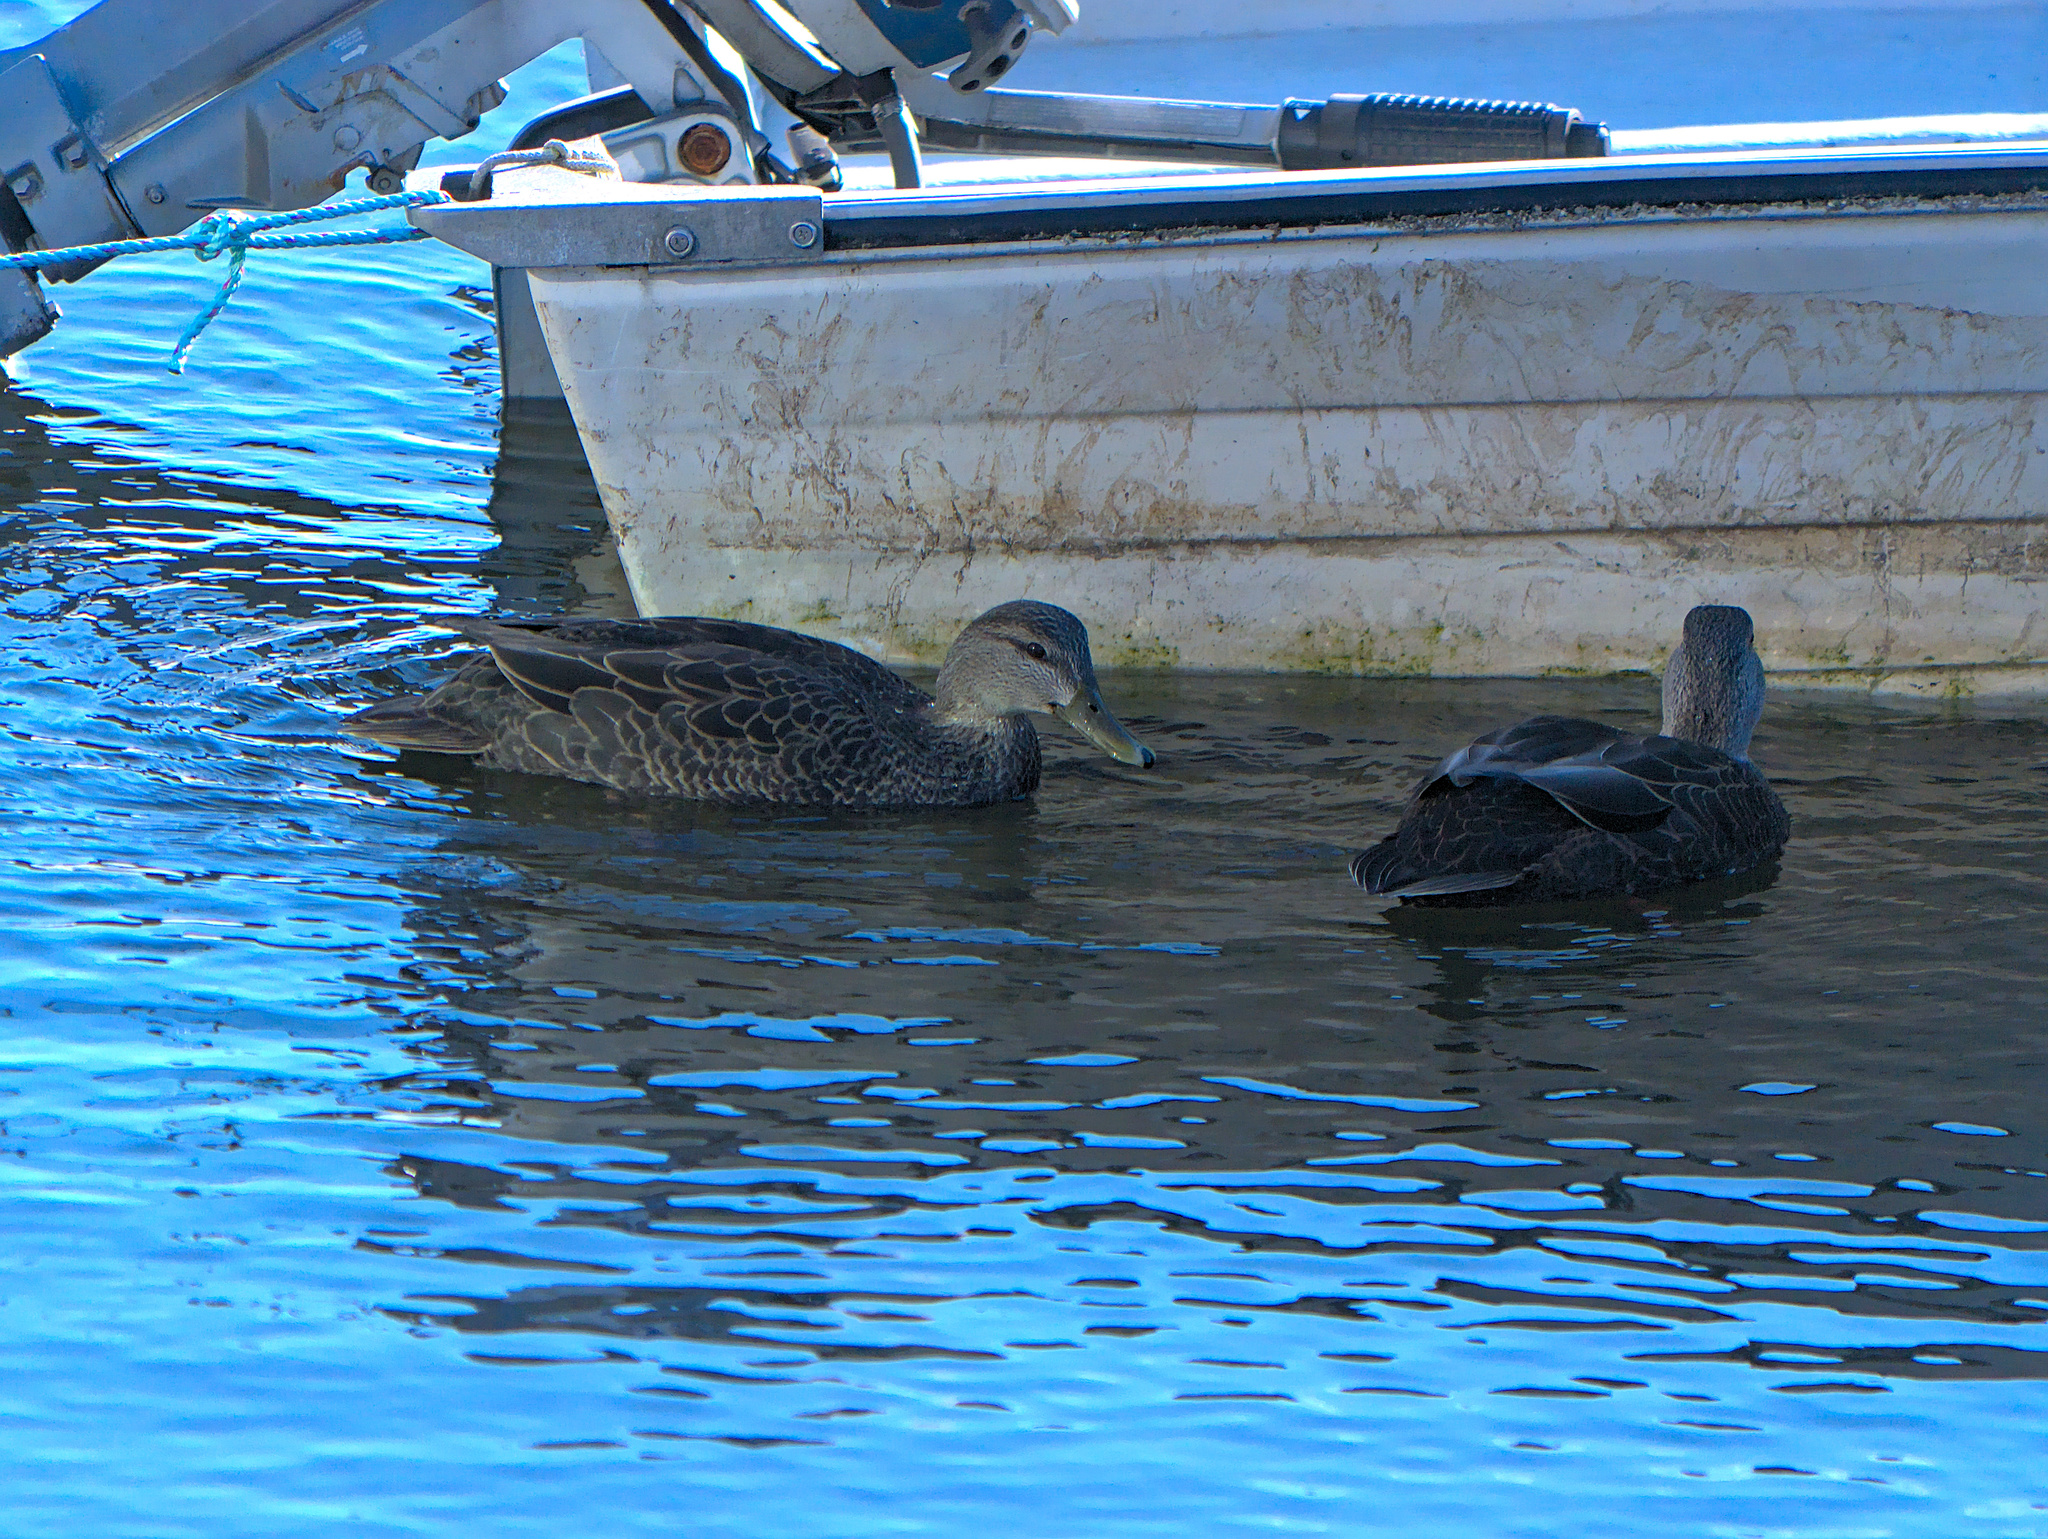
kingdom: Animalia
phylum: Chordata
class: Aves
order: Anseriformes
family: Anatidae
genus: Anas
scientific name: Anas rubripes
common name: American black duck
